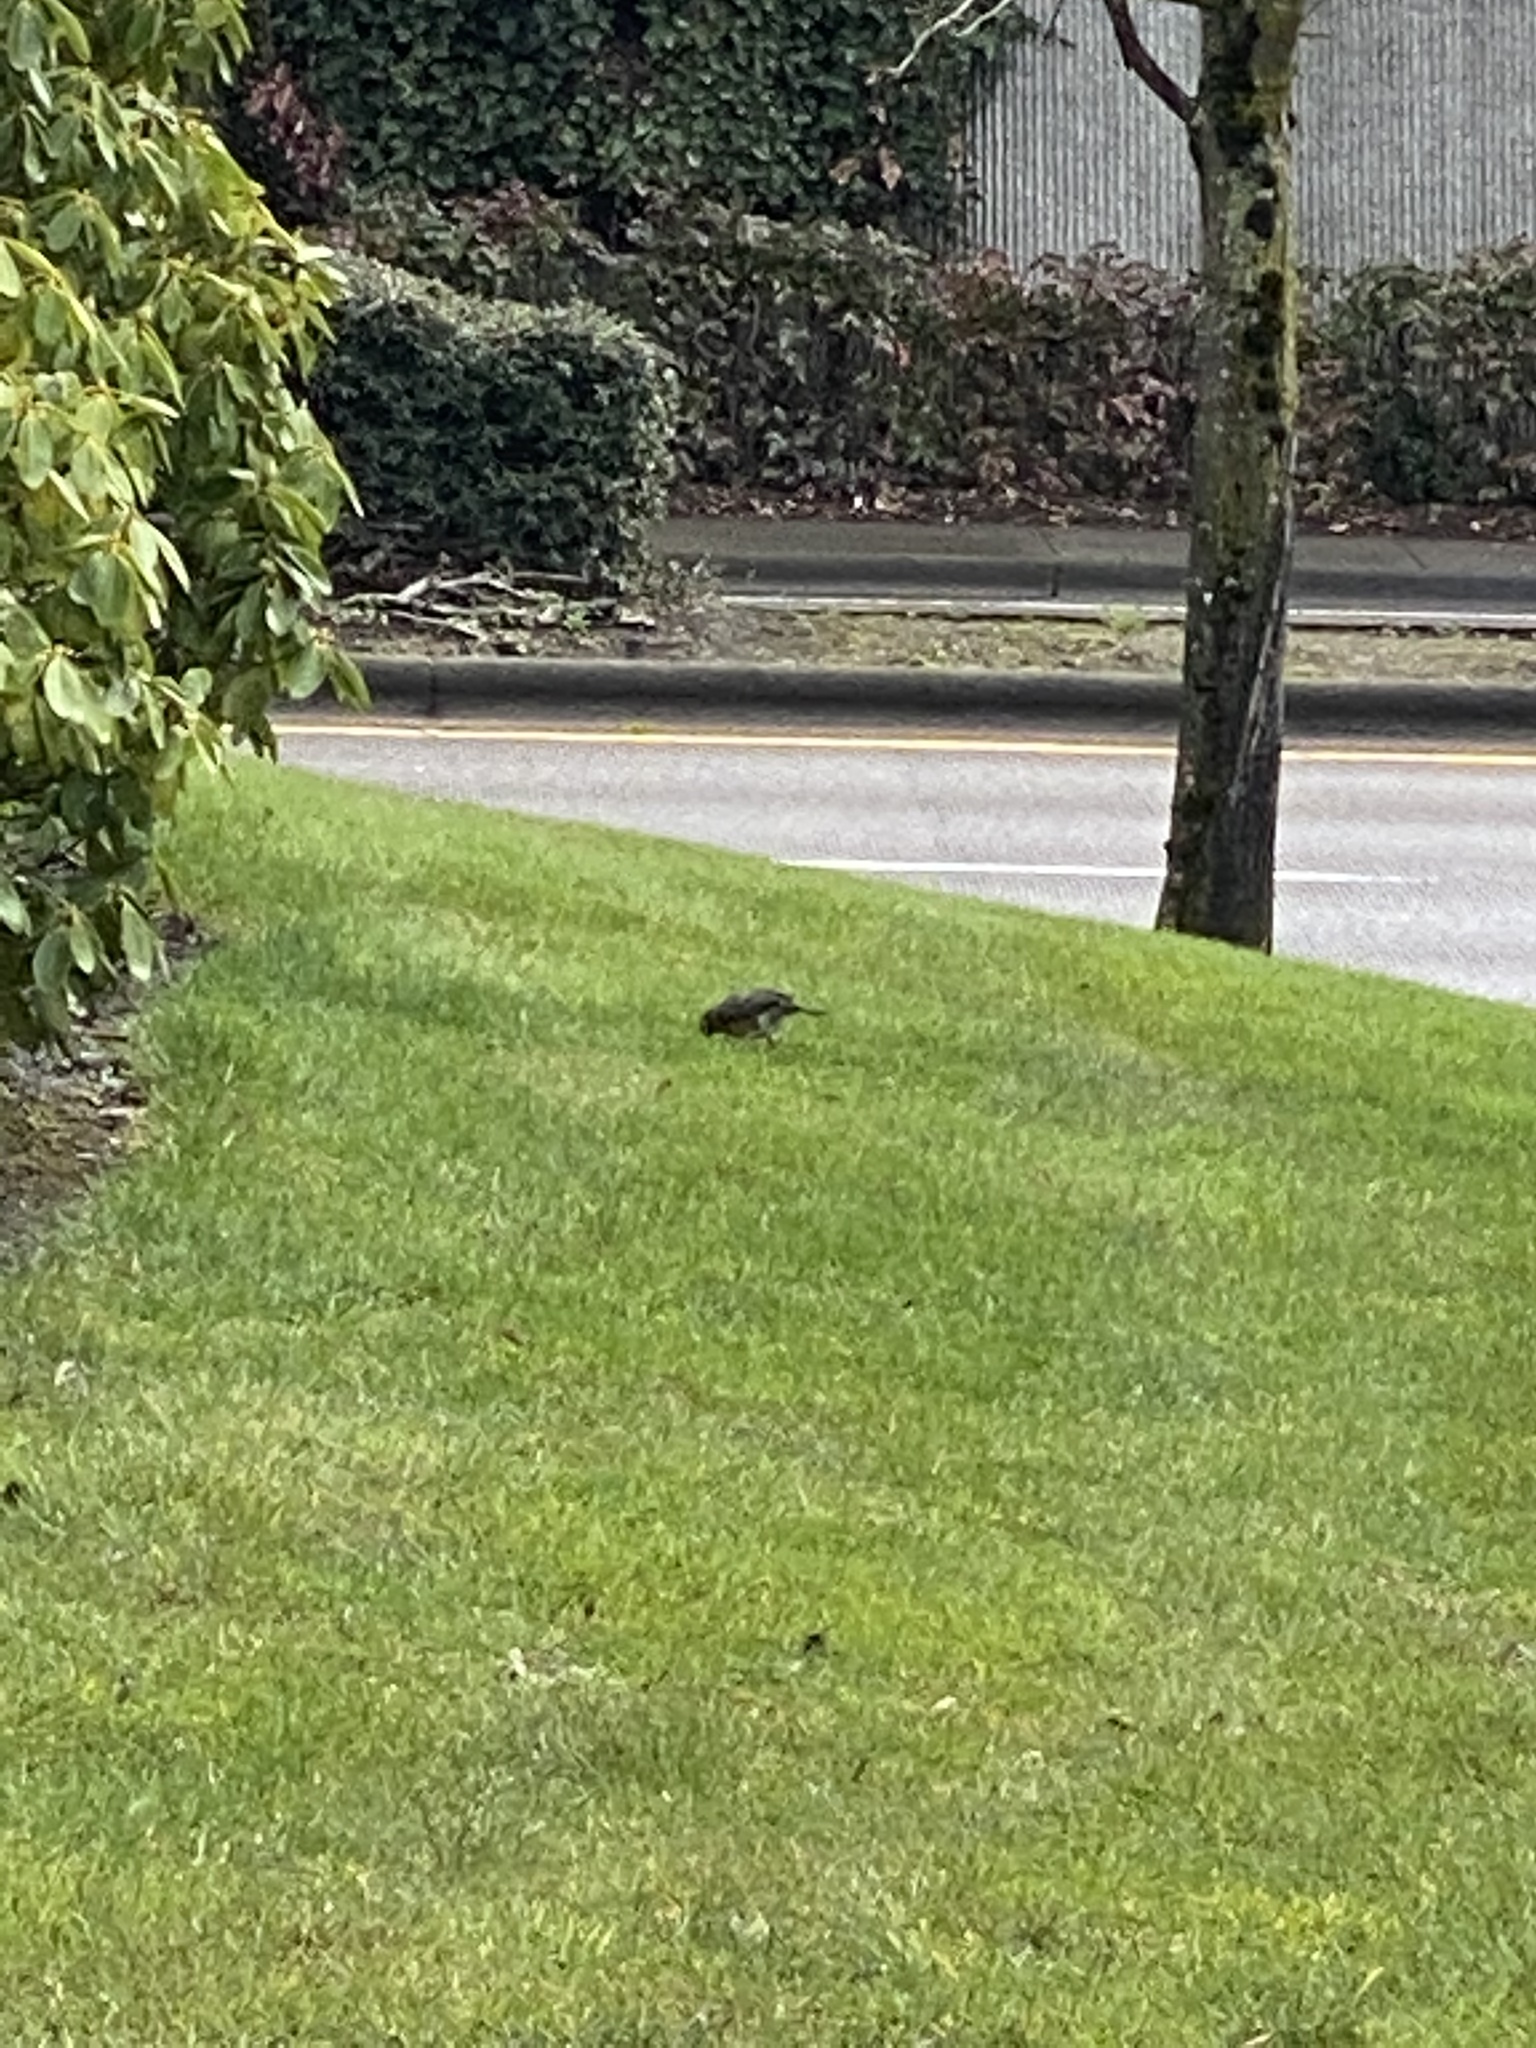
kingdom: Animalia
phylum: Chordata
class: Aves
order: Passeriformes
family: Turdidae
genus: Turdus
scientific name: Turdus migratorius
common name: American robin
